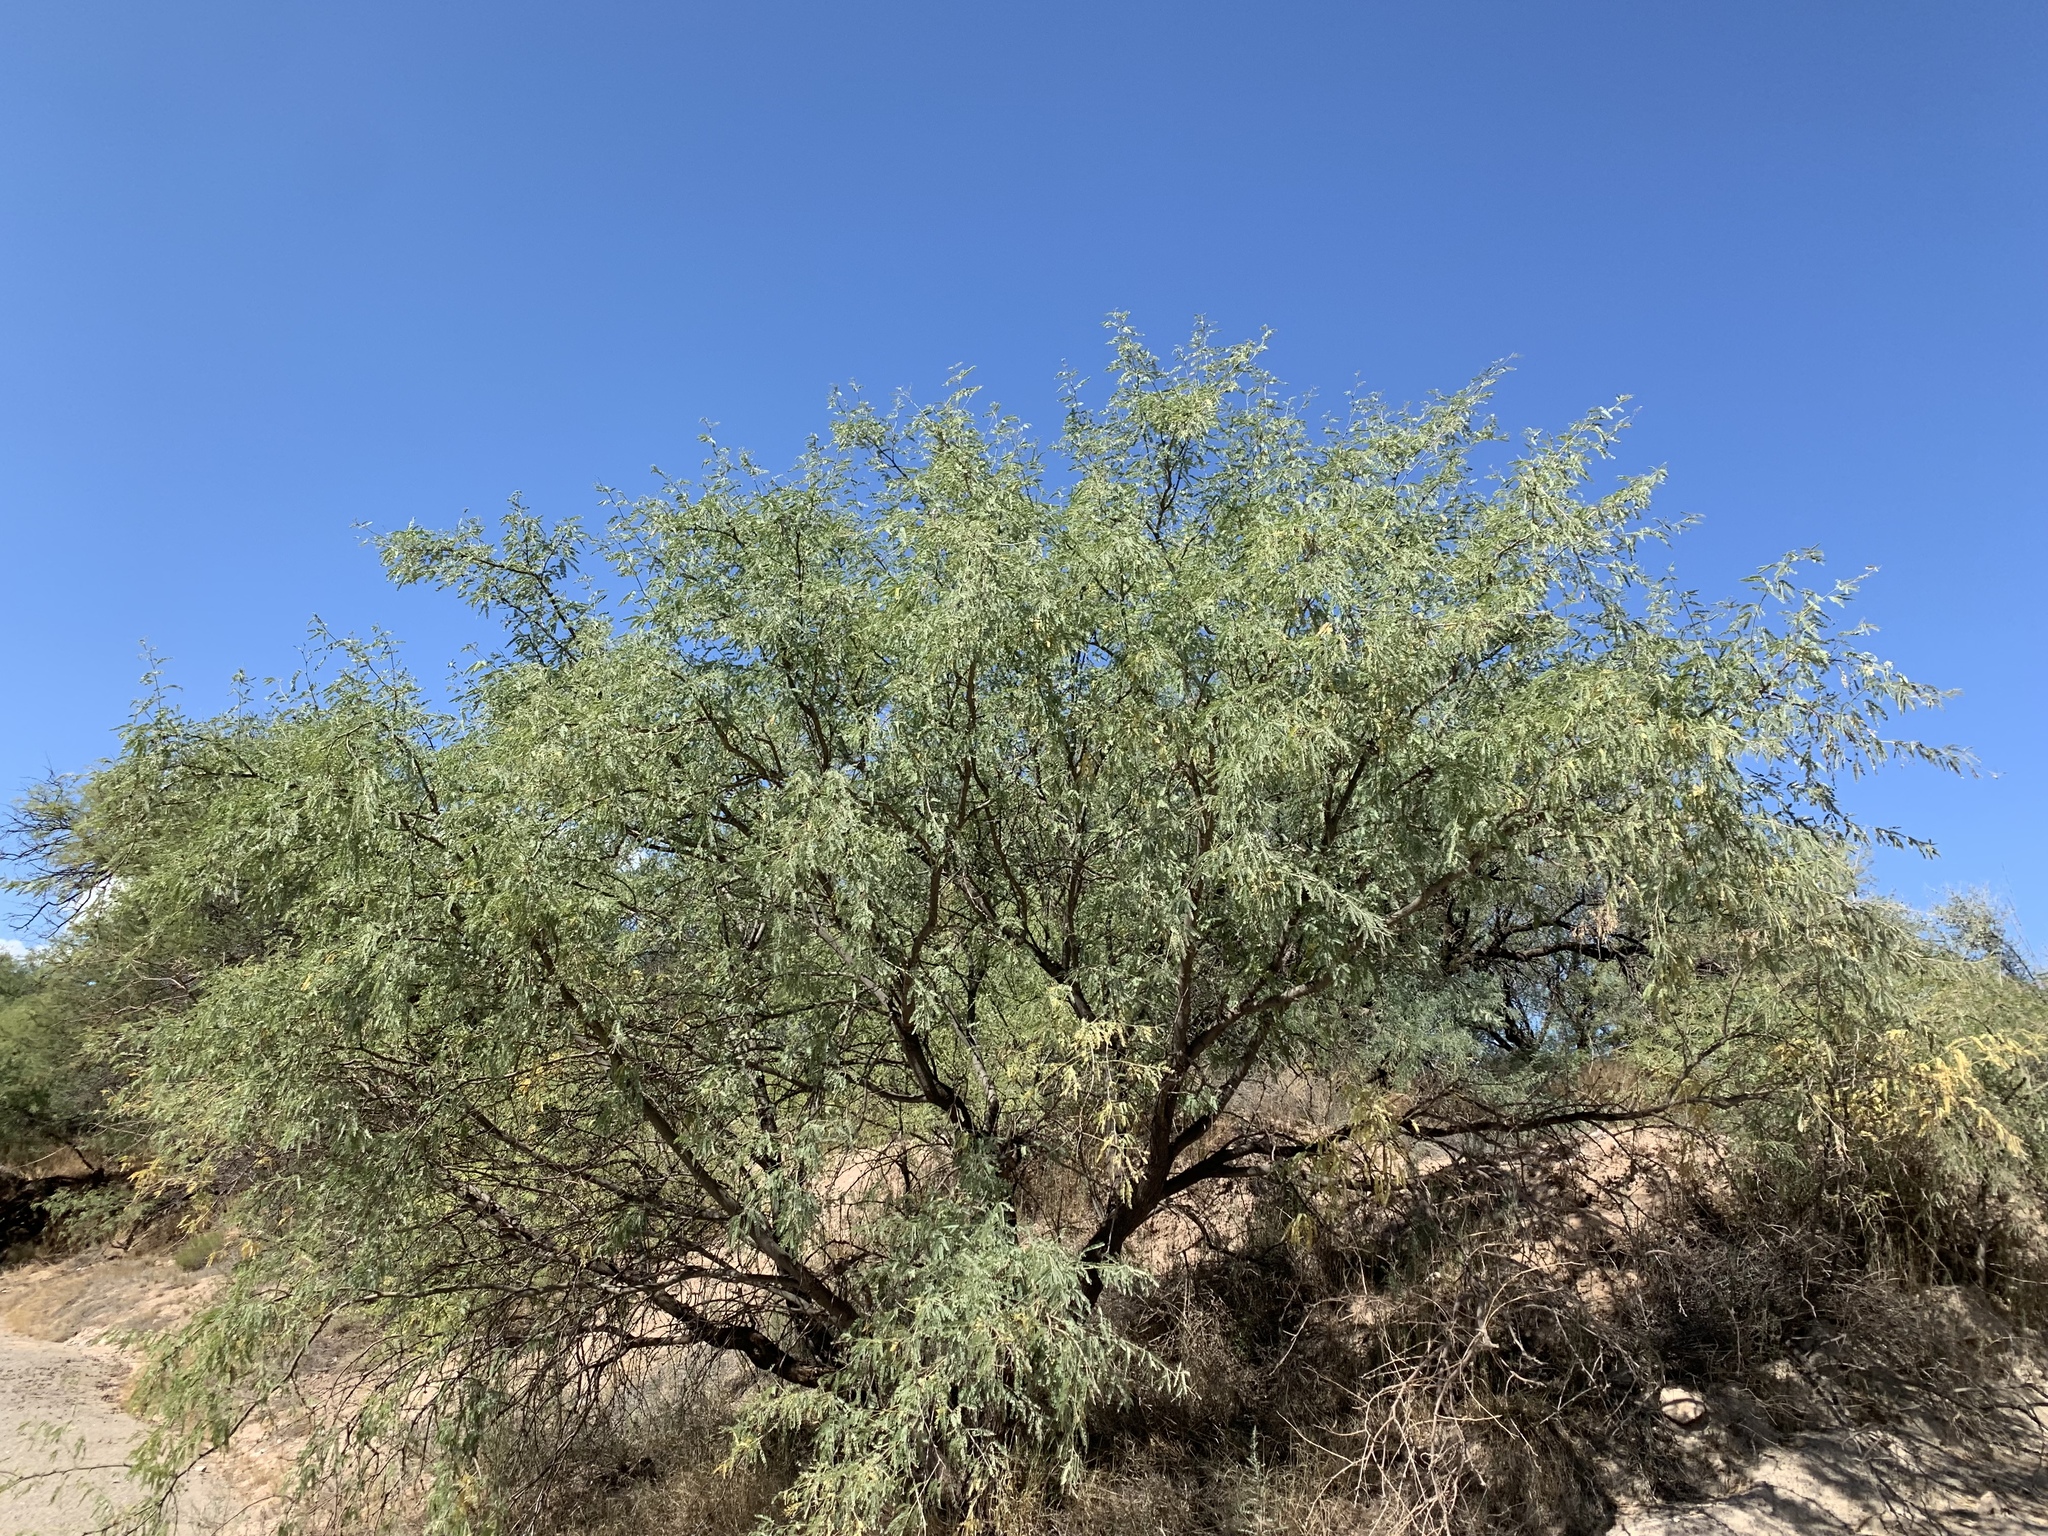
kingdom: Plantae
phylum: Tracheophyta
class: Magnoliopsida
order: Fabales
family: Fabaceae
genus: Prosopis
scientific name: Prosopis velutina
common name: Velvet mesquite
